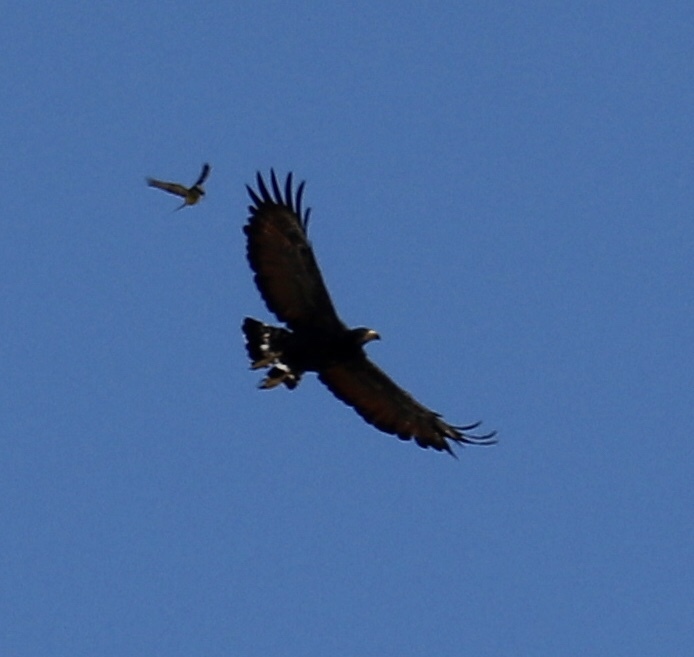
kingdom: Animalia
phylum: Chordata
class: Aves
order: Accipitriformes
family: Accipitridae
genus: Buteogallus
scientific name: Buteogallus anthracinus
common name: Common black hawk
